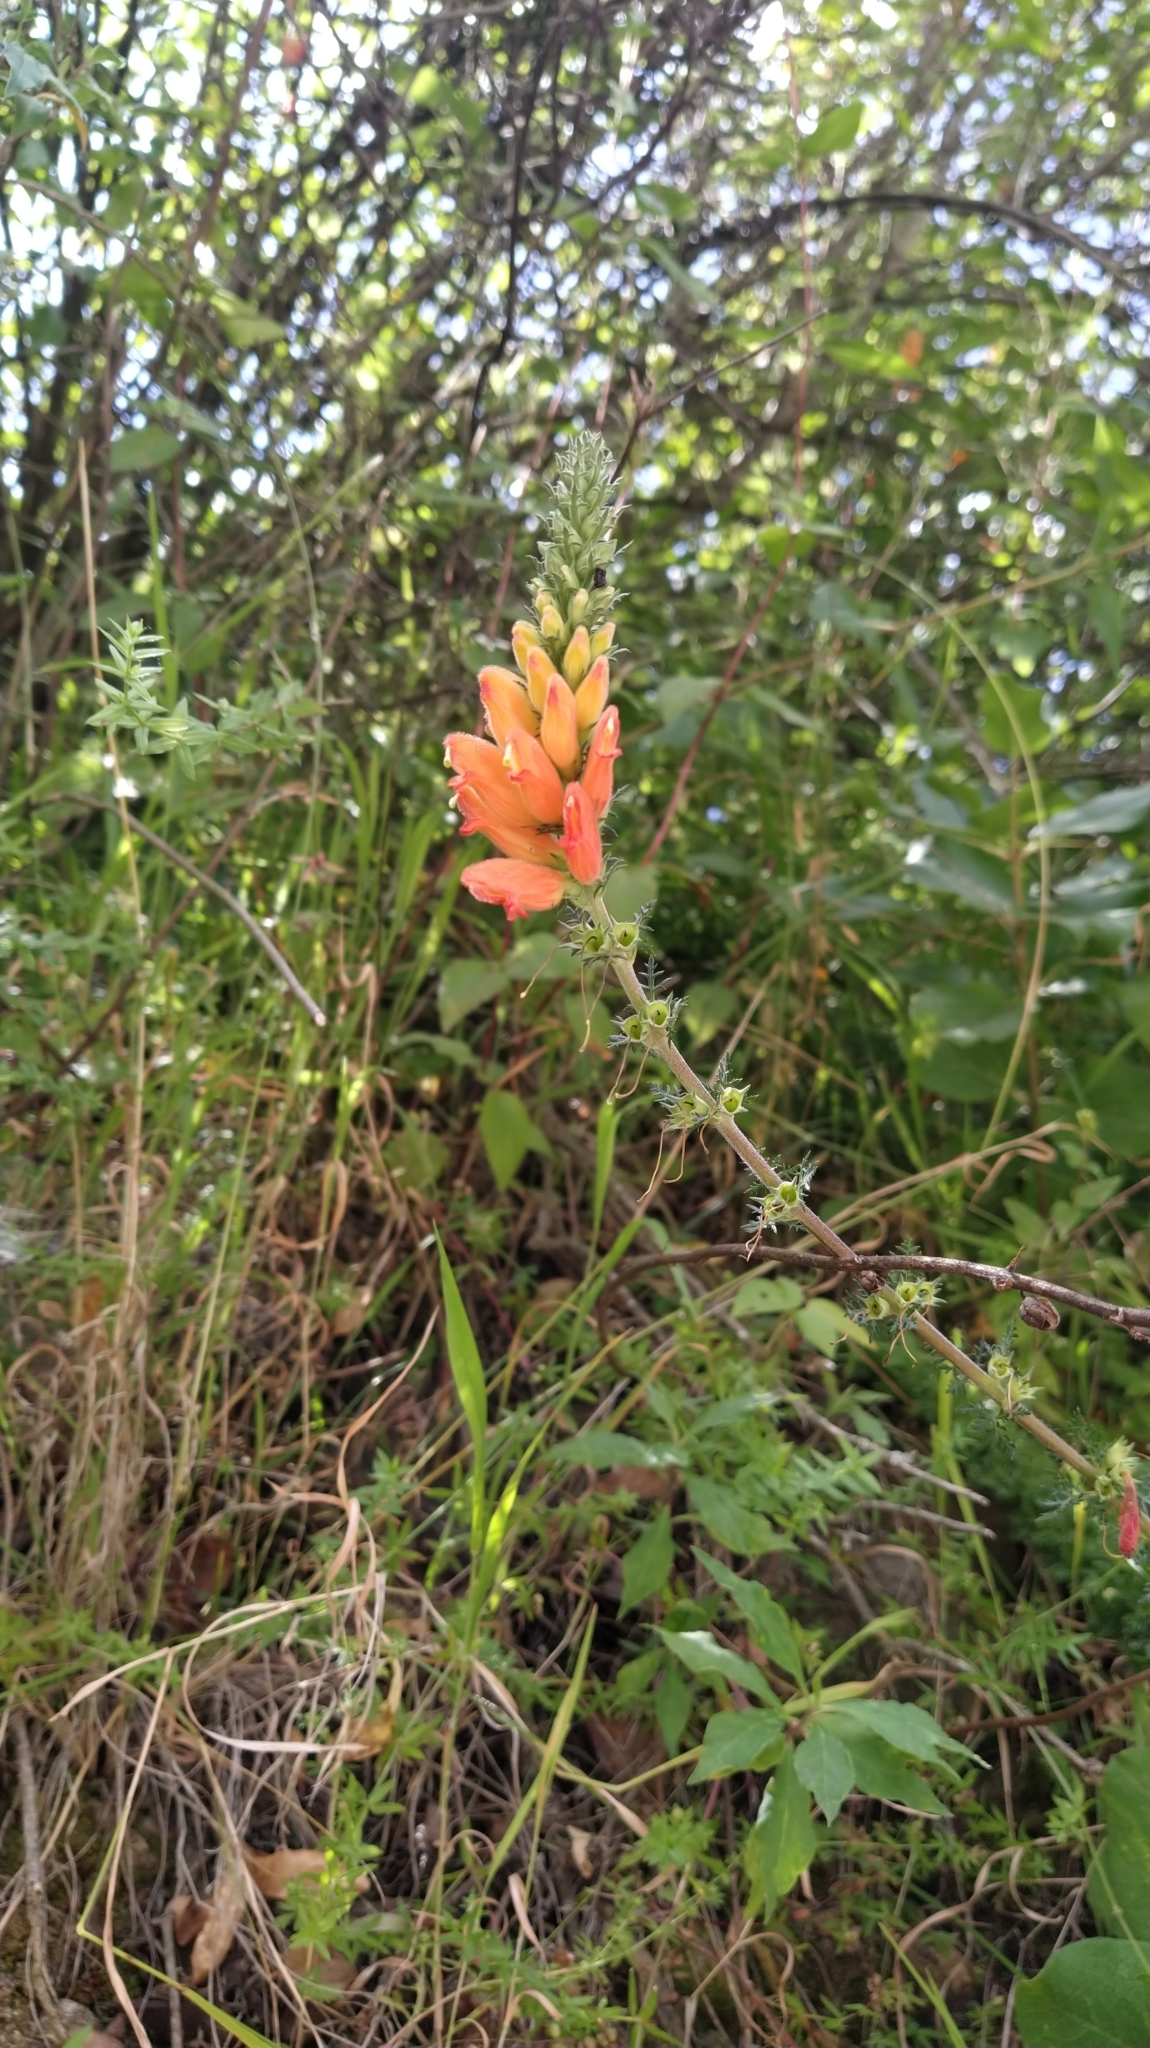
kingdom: Plantae
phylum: Tracheophyta
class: Magnoliopsida
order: Lamiales
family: Orobanchaceae
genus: Lamourouxia
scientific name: Lamourouxia multifida
